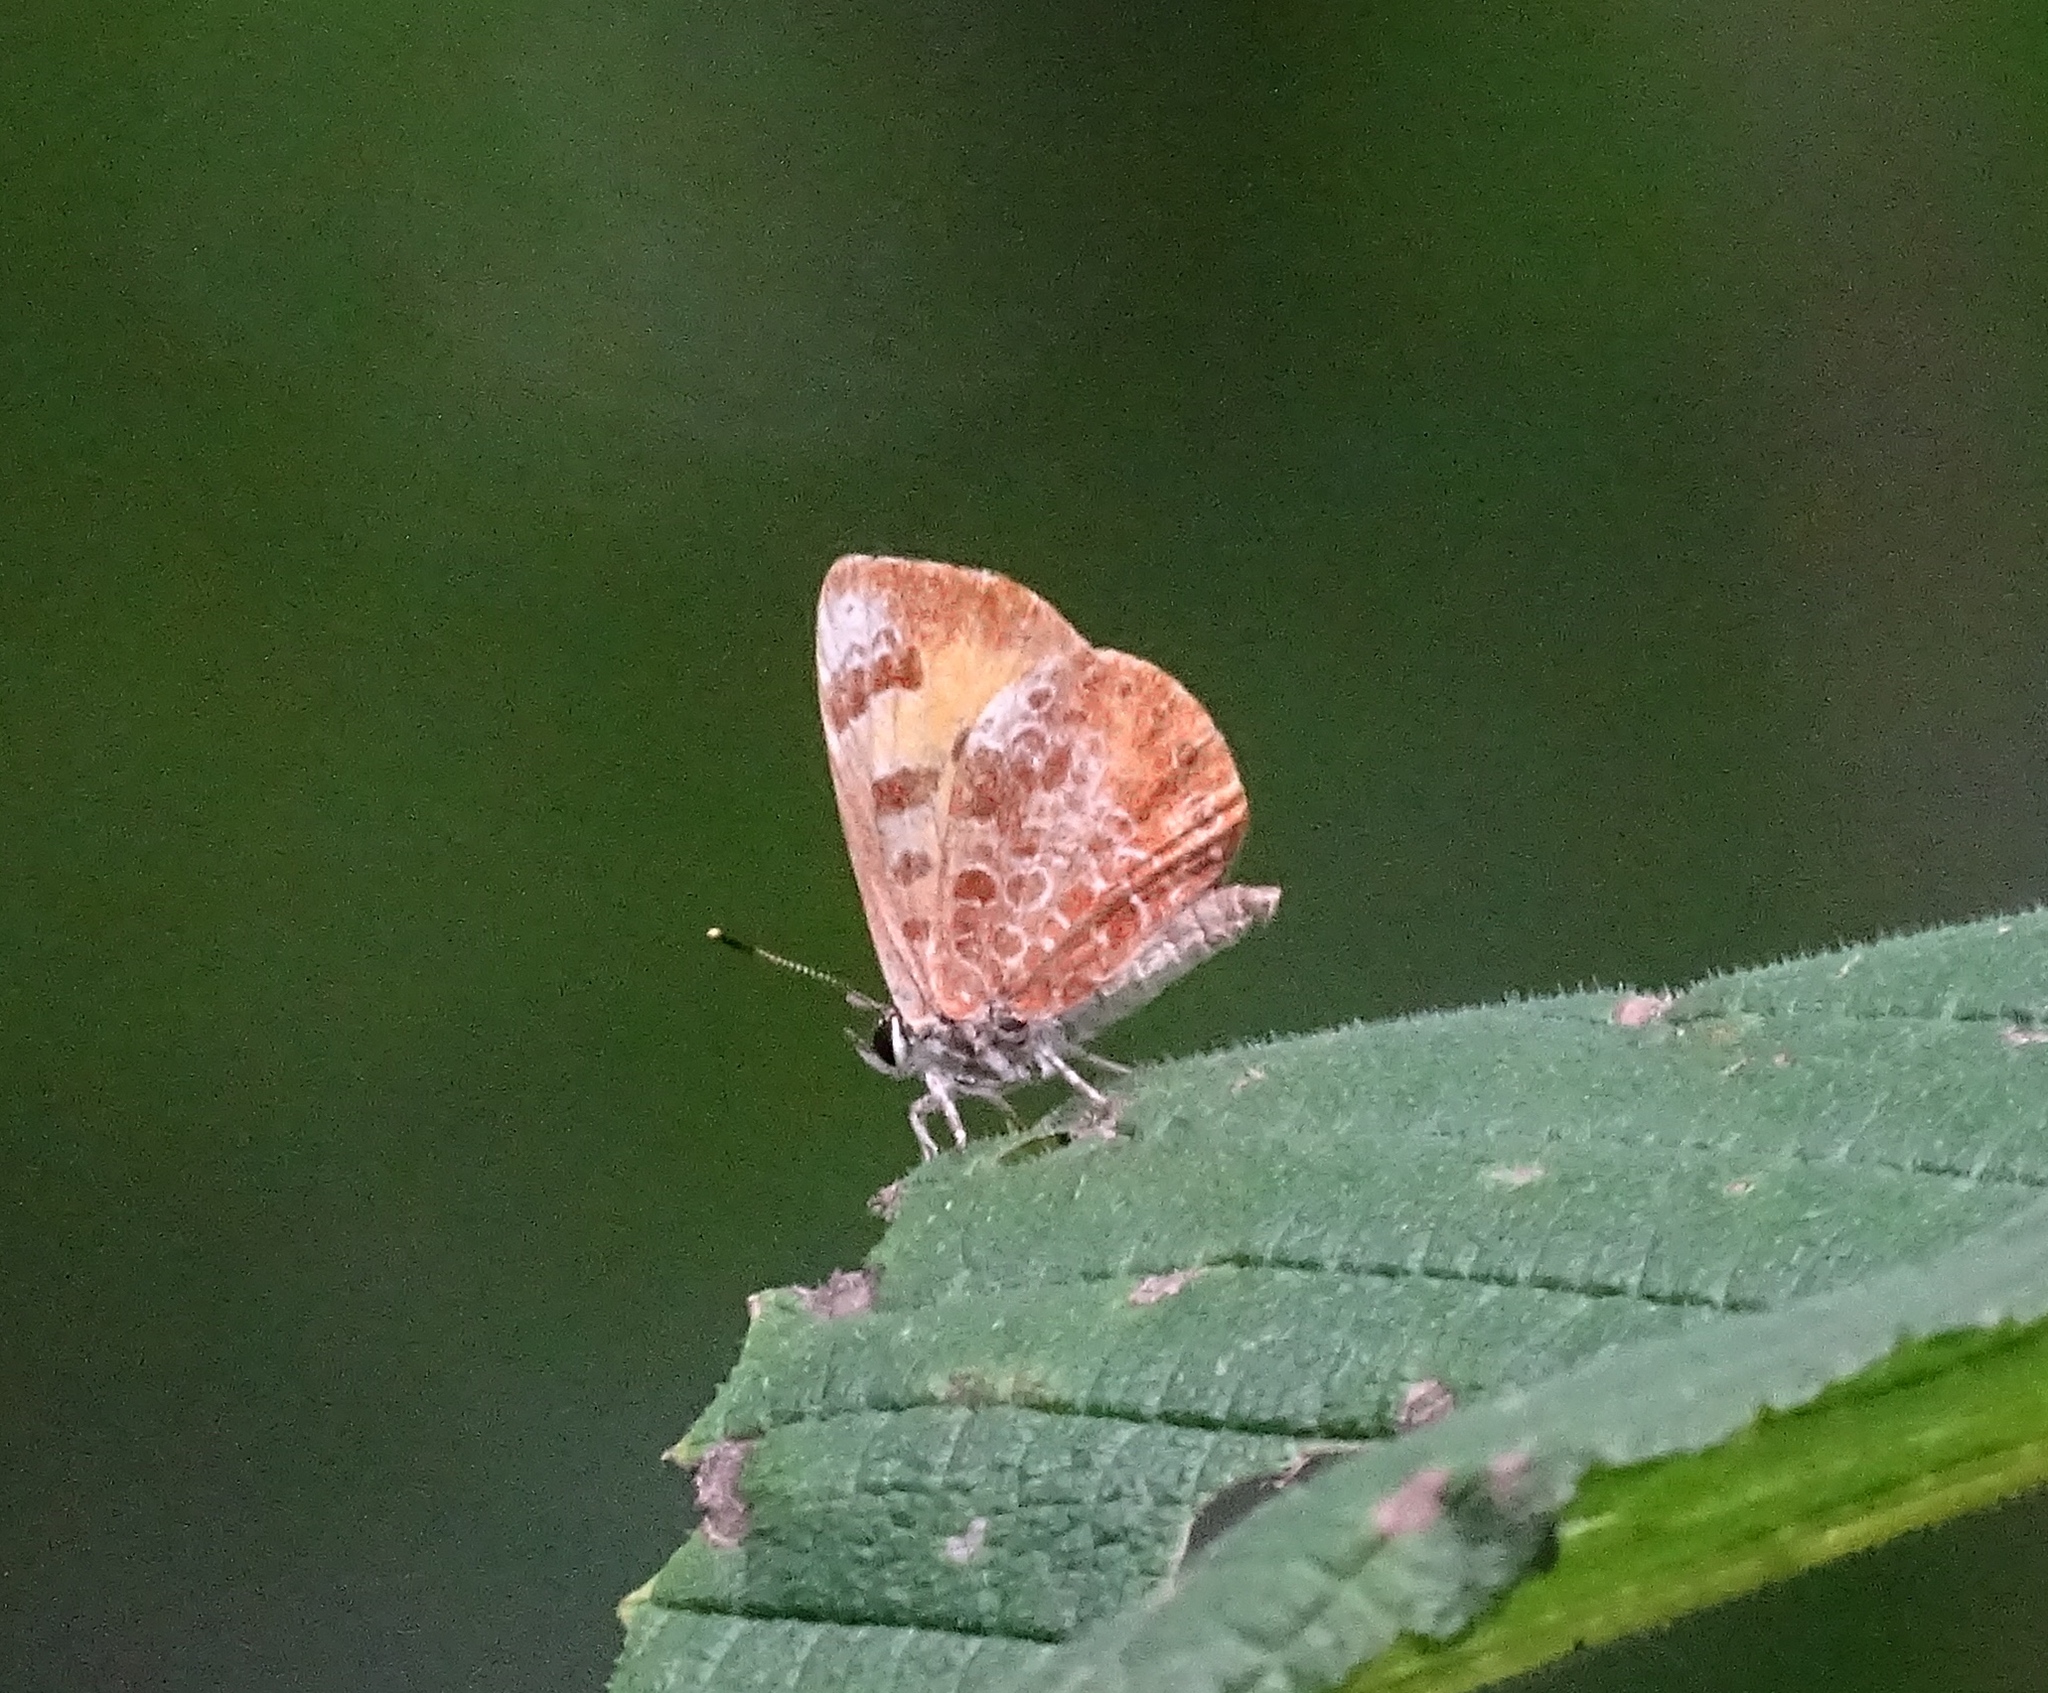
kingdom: Animalia
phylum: Arthropoda
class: Insecta
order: Lepidoptera
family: Lycaenidae
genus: Feniseca
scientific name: Feniseca tarquinius
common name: Harvester
